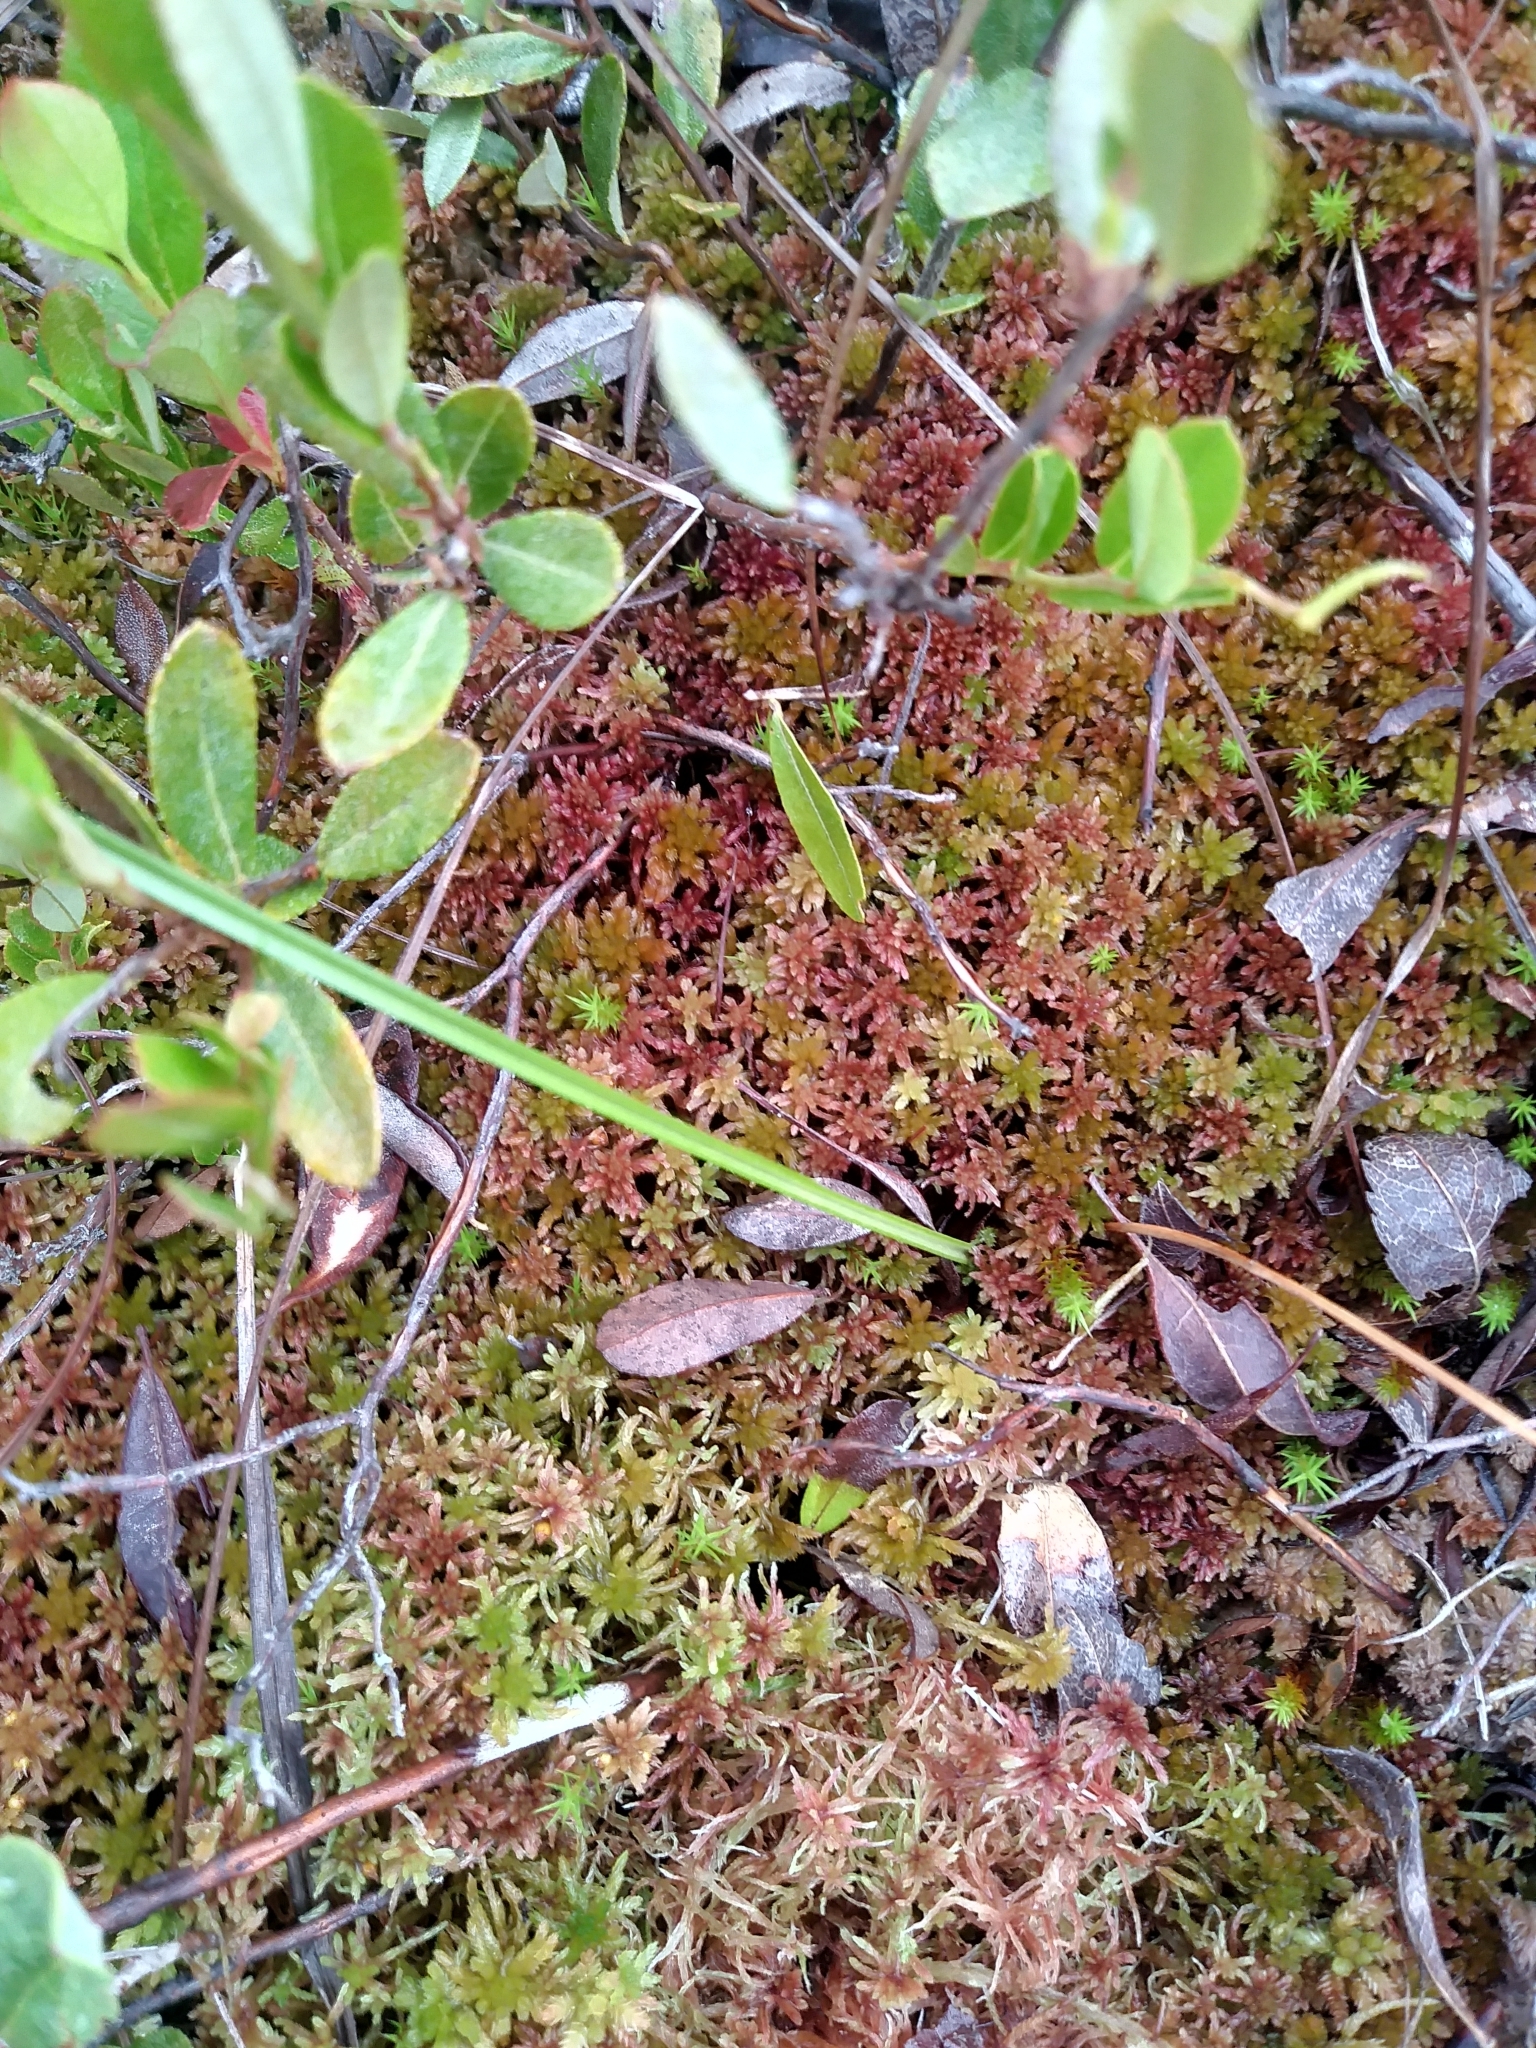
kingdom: Plantae
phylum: Bryophyta
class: Sphagnopsida
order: Sphagnales
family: Sphagnaceae
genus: Sphagnum
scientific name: Sphagnum fuscum
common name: Brown peat moss
